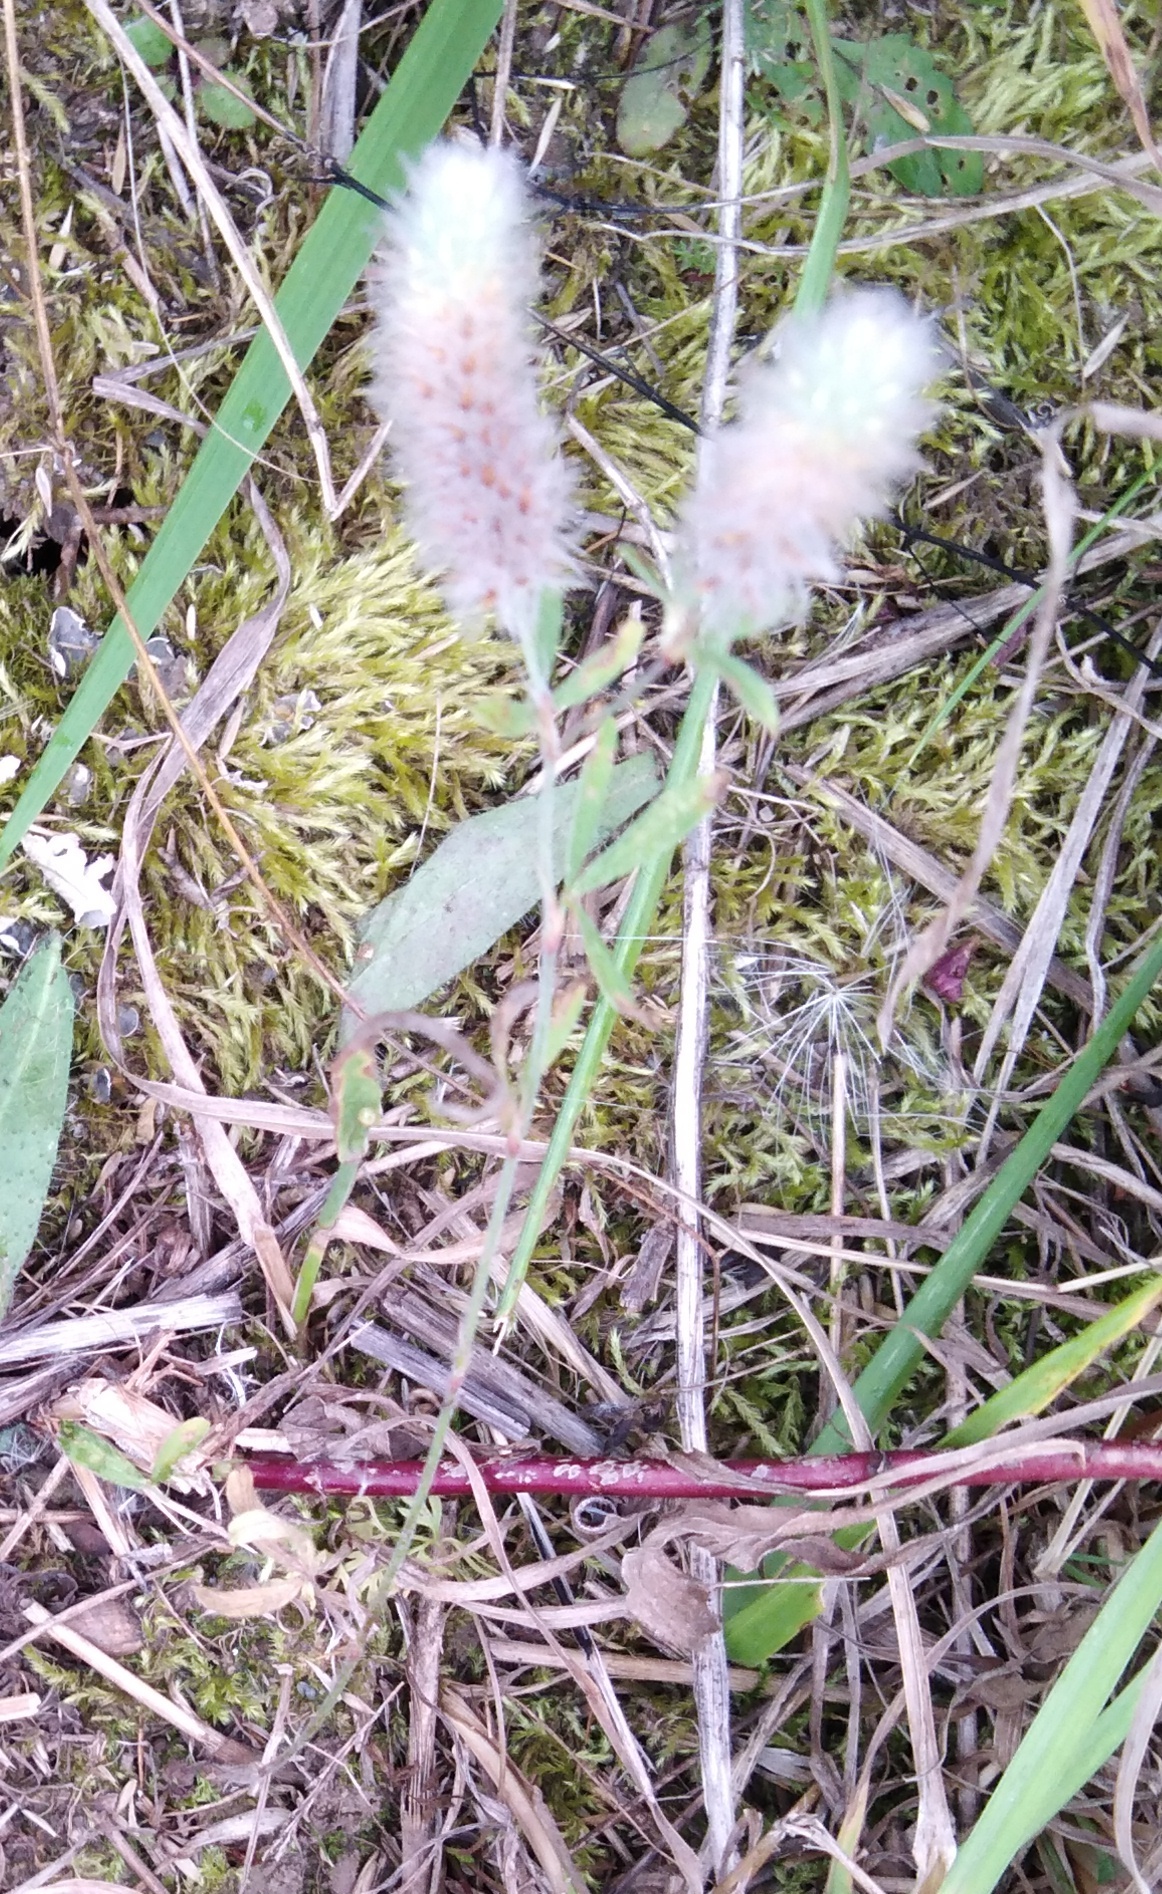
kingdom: Plantae
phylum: Tracheophyta
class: Magnoliopsida
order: Fabales
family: Fabaceae
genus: Trifolium
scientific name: Trifolium arvense
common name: Hare's-foot clover
